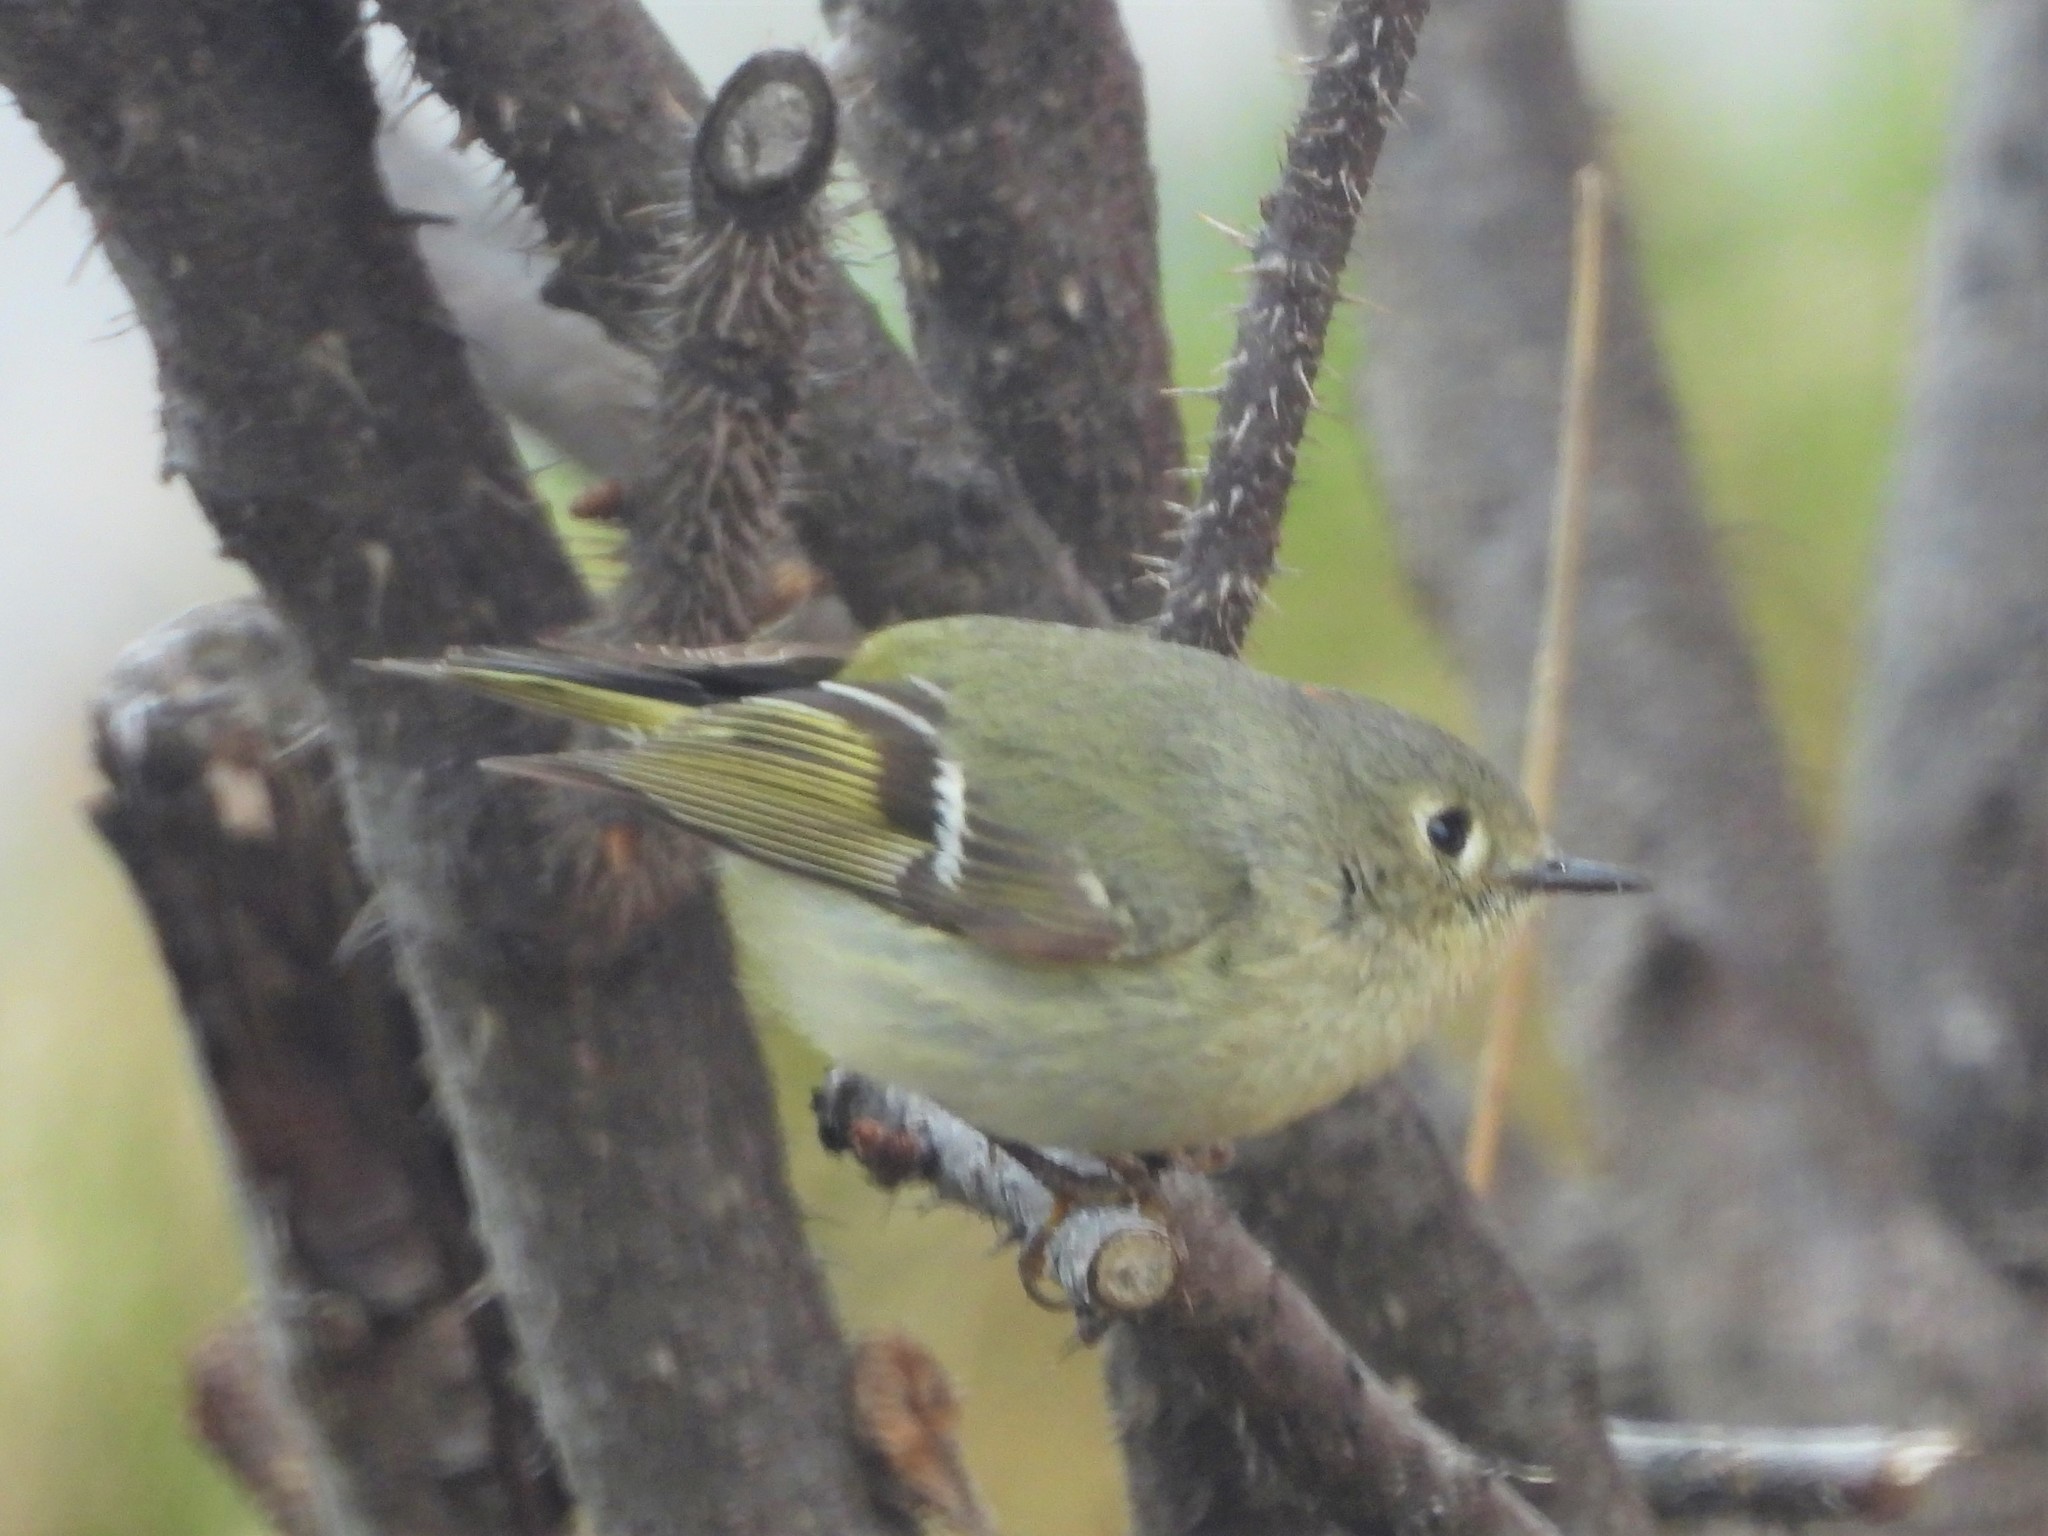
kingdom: Animalia
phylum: Chordata
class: Aves
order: Passeriformes
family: Regulidae
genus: Regulus
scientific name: Regulus calendula
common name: Ruby-crowned kinglet
